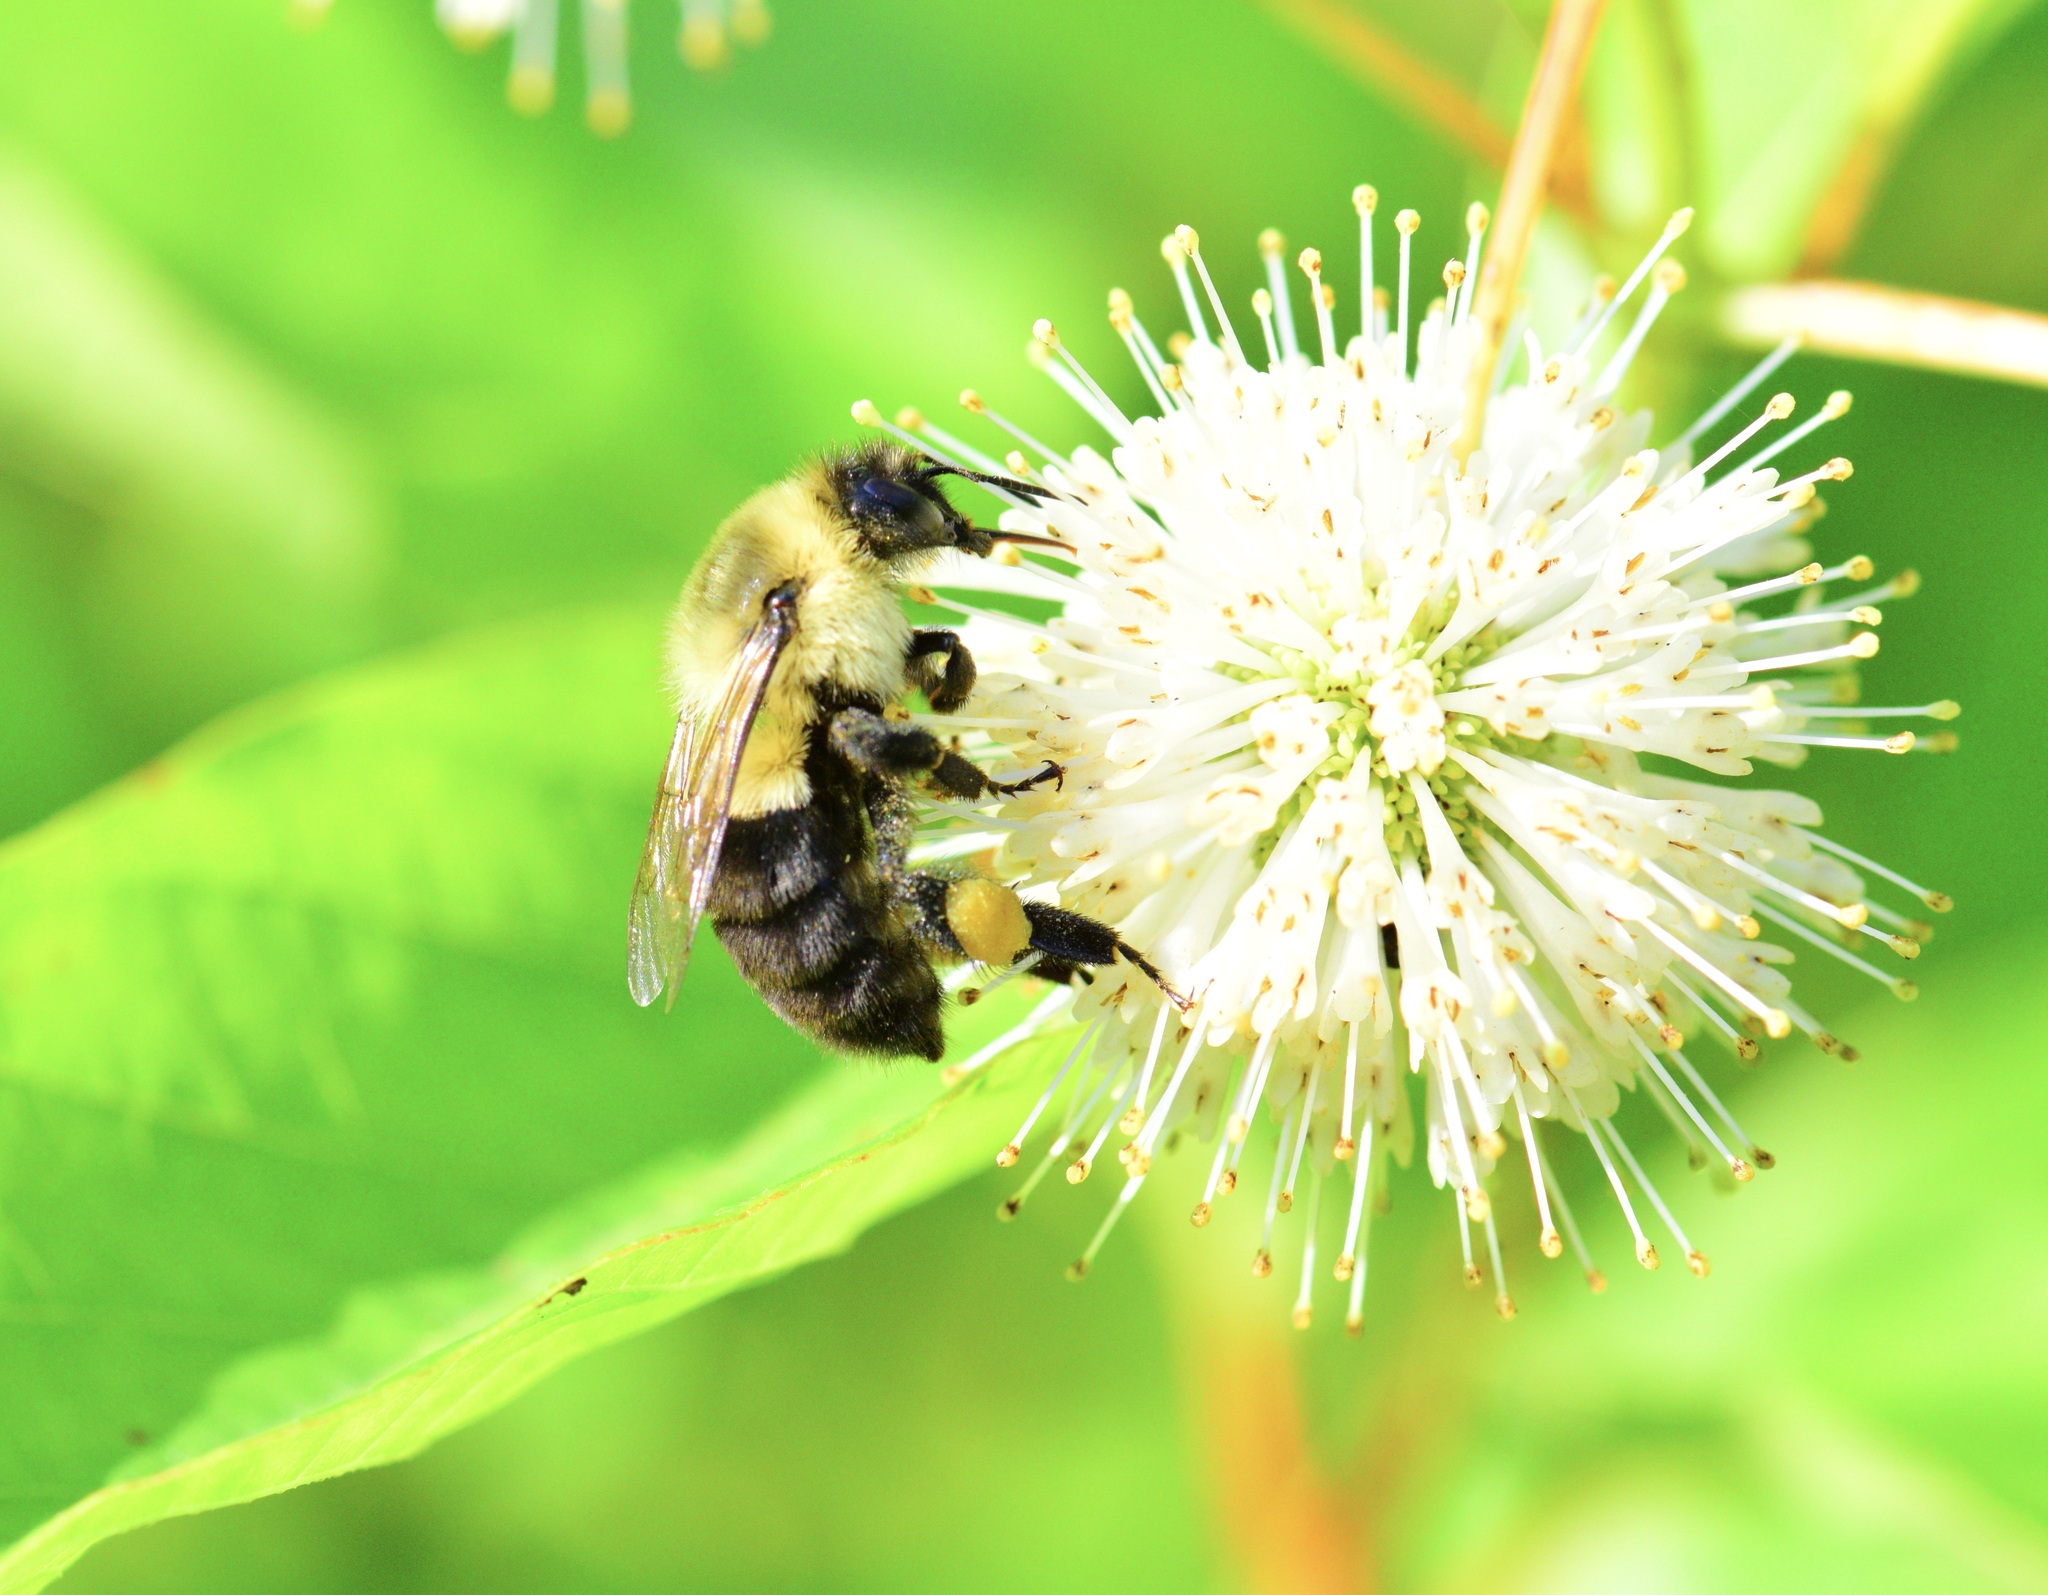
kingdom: Animalia
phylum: Arthropoda
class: Insecta
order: Hymenoptera
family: Apidae
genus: Bombus
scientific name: Bombus impatiens
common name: Common eastern bumble bee
